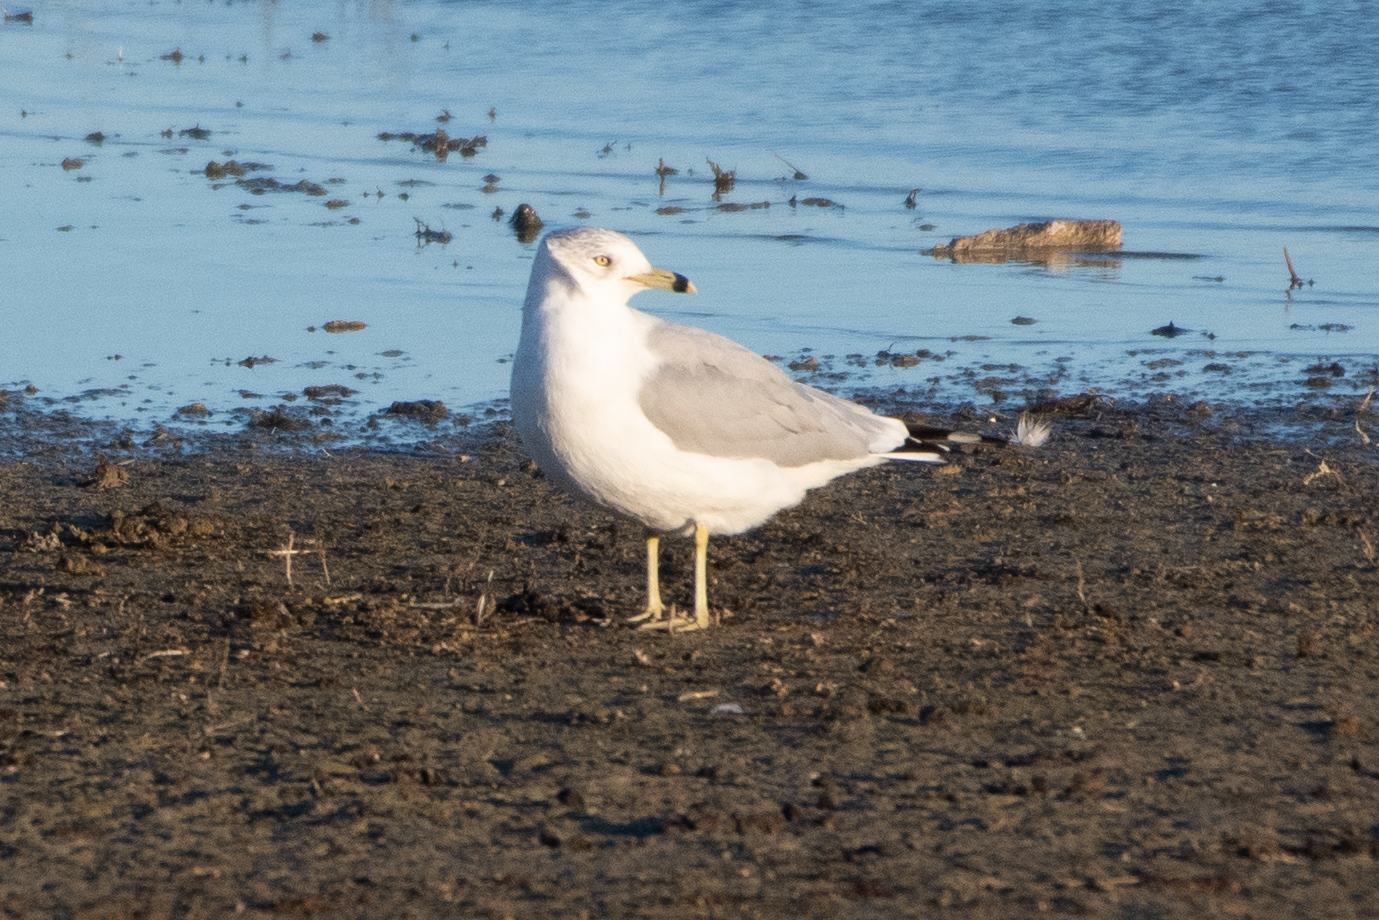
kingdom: Animalia
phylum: Chordata
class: Aves
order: Charadriiformes
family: Laridae
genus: Larus
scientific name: Larus delawarensis
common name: Ring-billed gull
